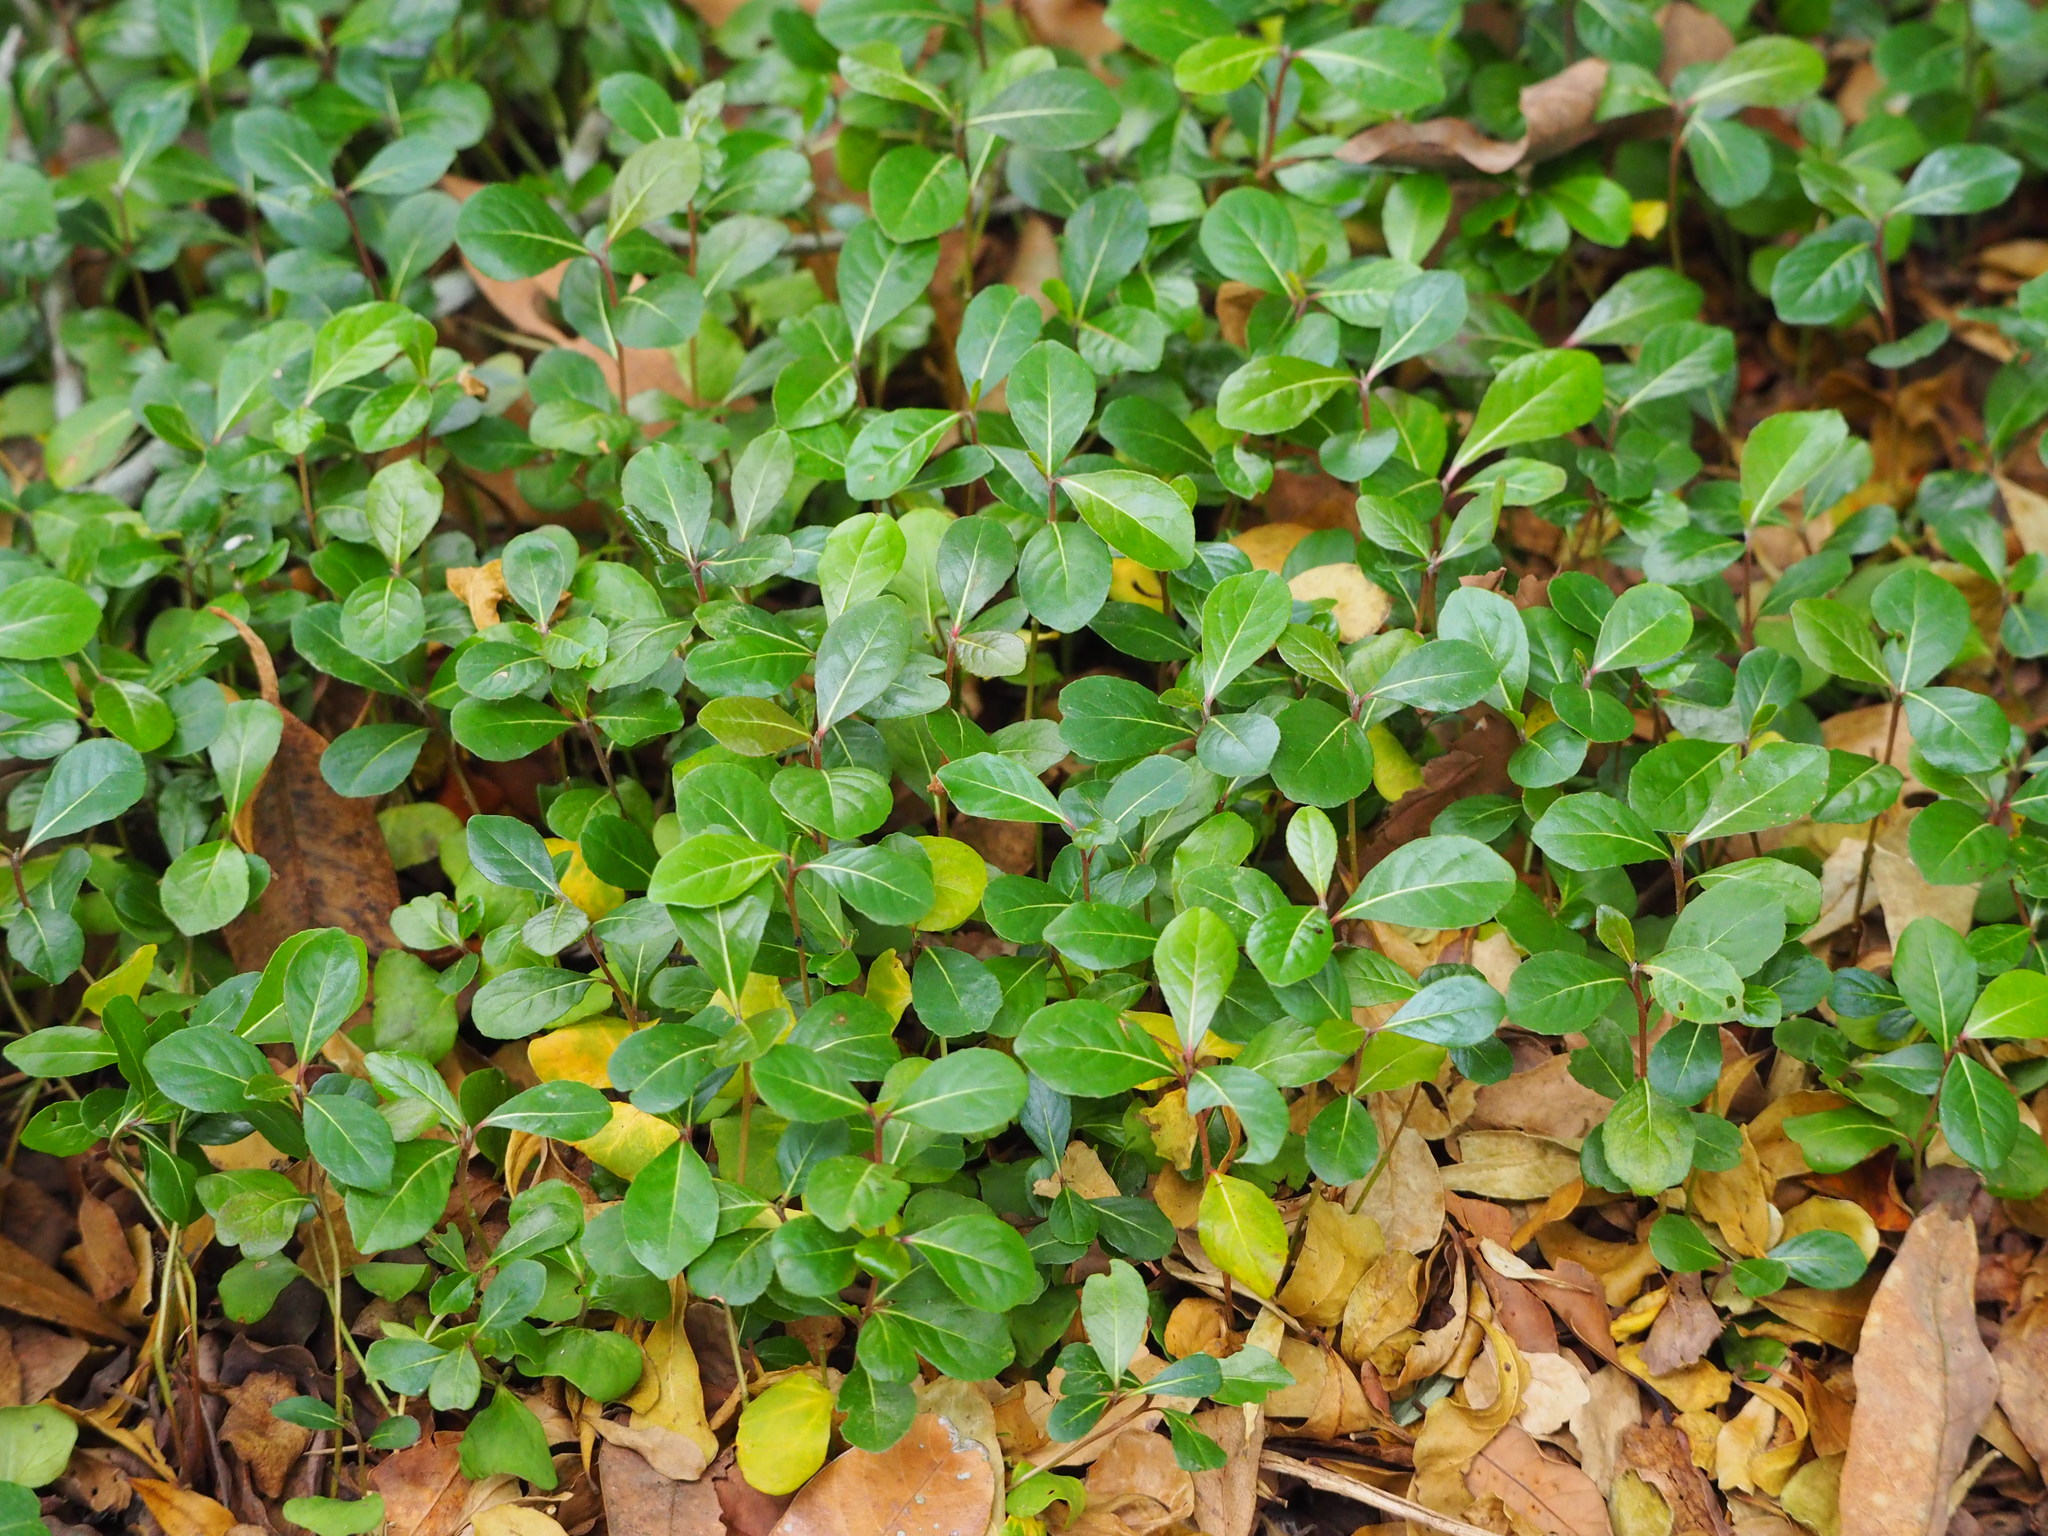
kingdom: Plantae
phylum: Tracheophyta
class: Magnoliopsida
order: Myrtales
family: Combretaceae
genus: Terminalia
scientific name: Terminalia neotaliala
